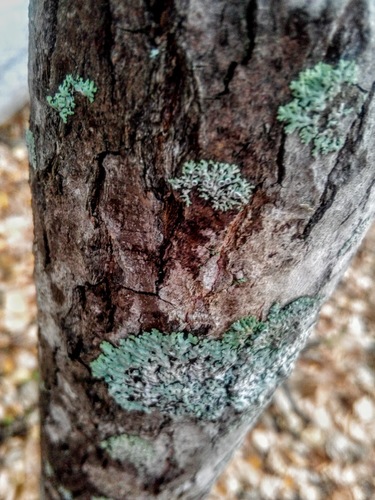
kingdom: Fungi
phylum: Ascomycota
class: Lecanoromycetes
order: Lecanorales
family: Parmeliaceae
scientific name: Parmeliaceae
